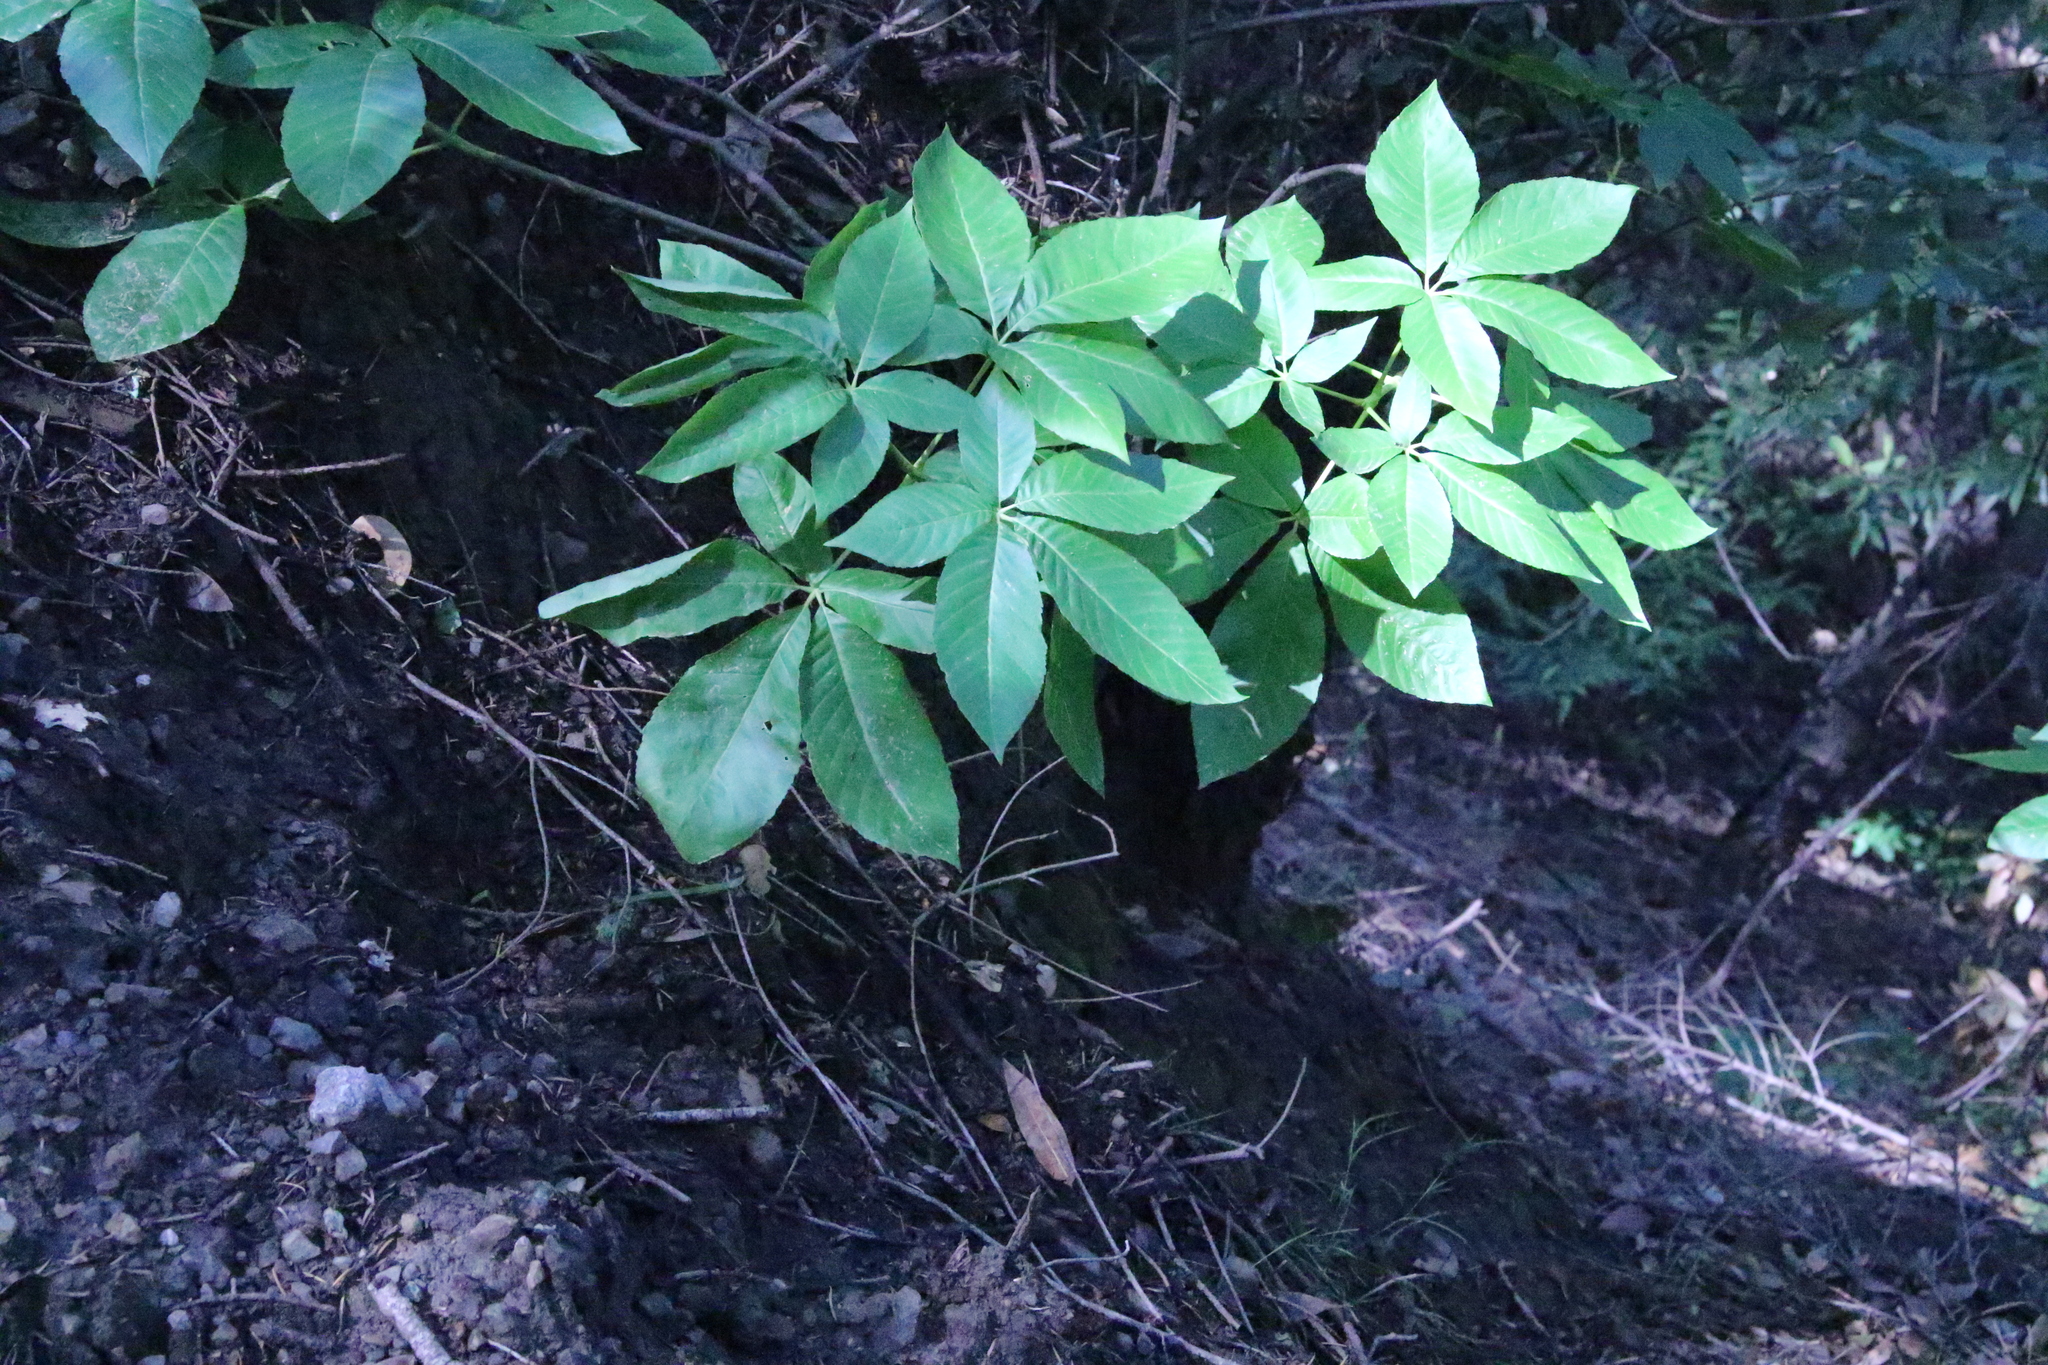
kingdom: Plantae
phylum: Tracheophyta
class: Magnoliopsida
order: Sapindales
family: Sapindaceae
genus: Aesculus
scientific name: Aesculus californica
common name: California buckeye
